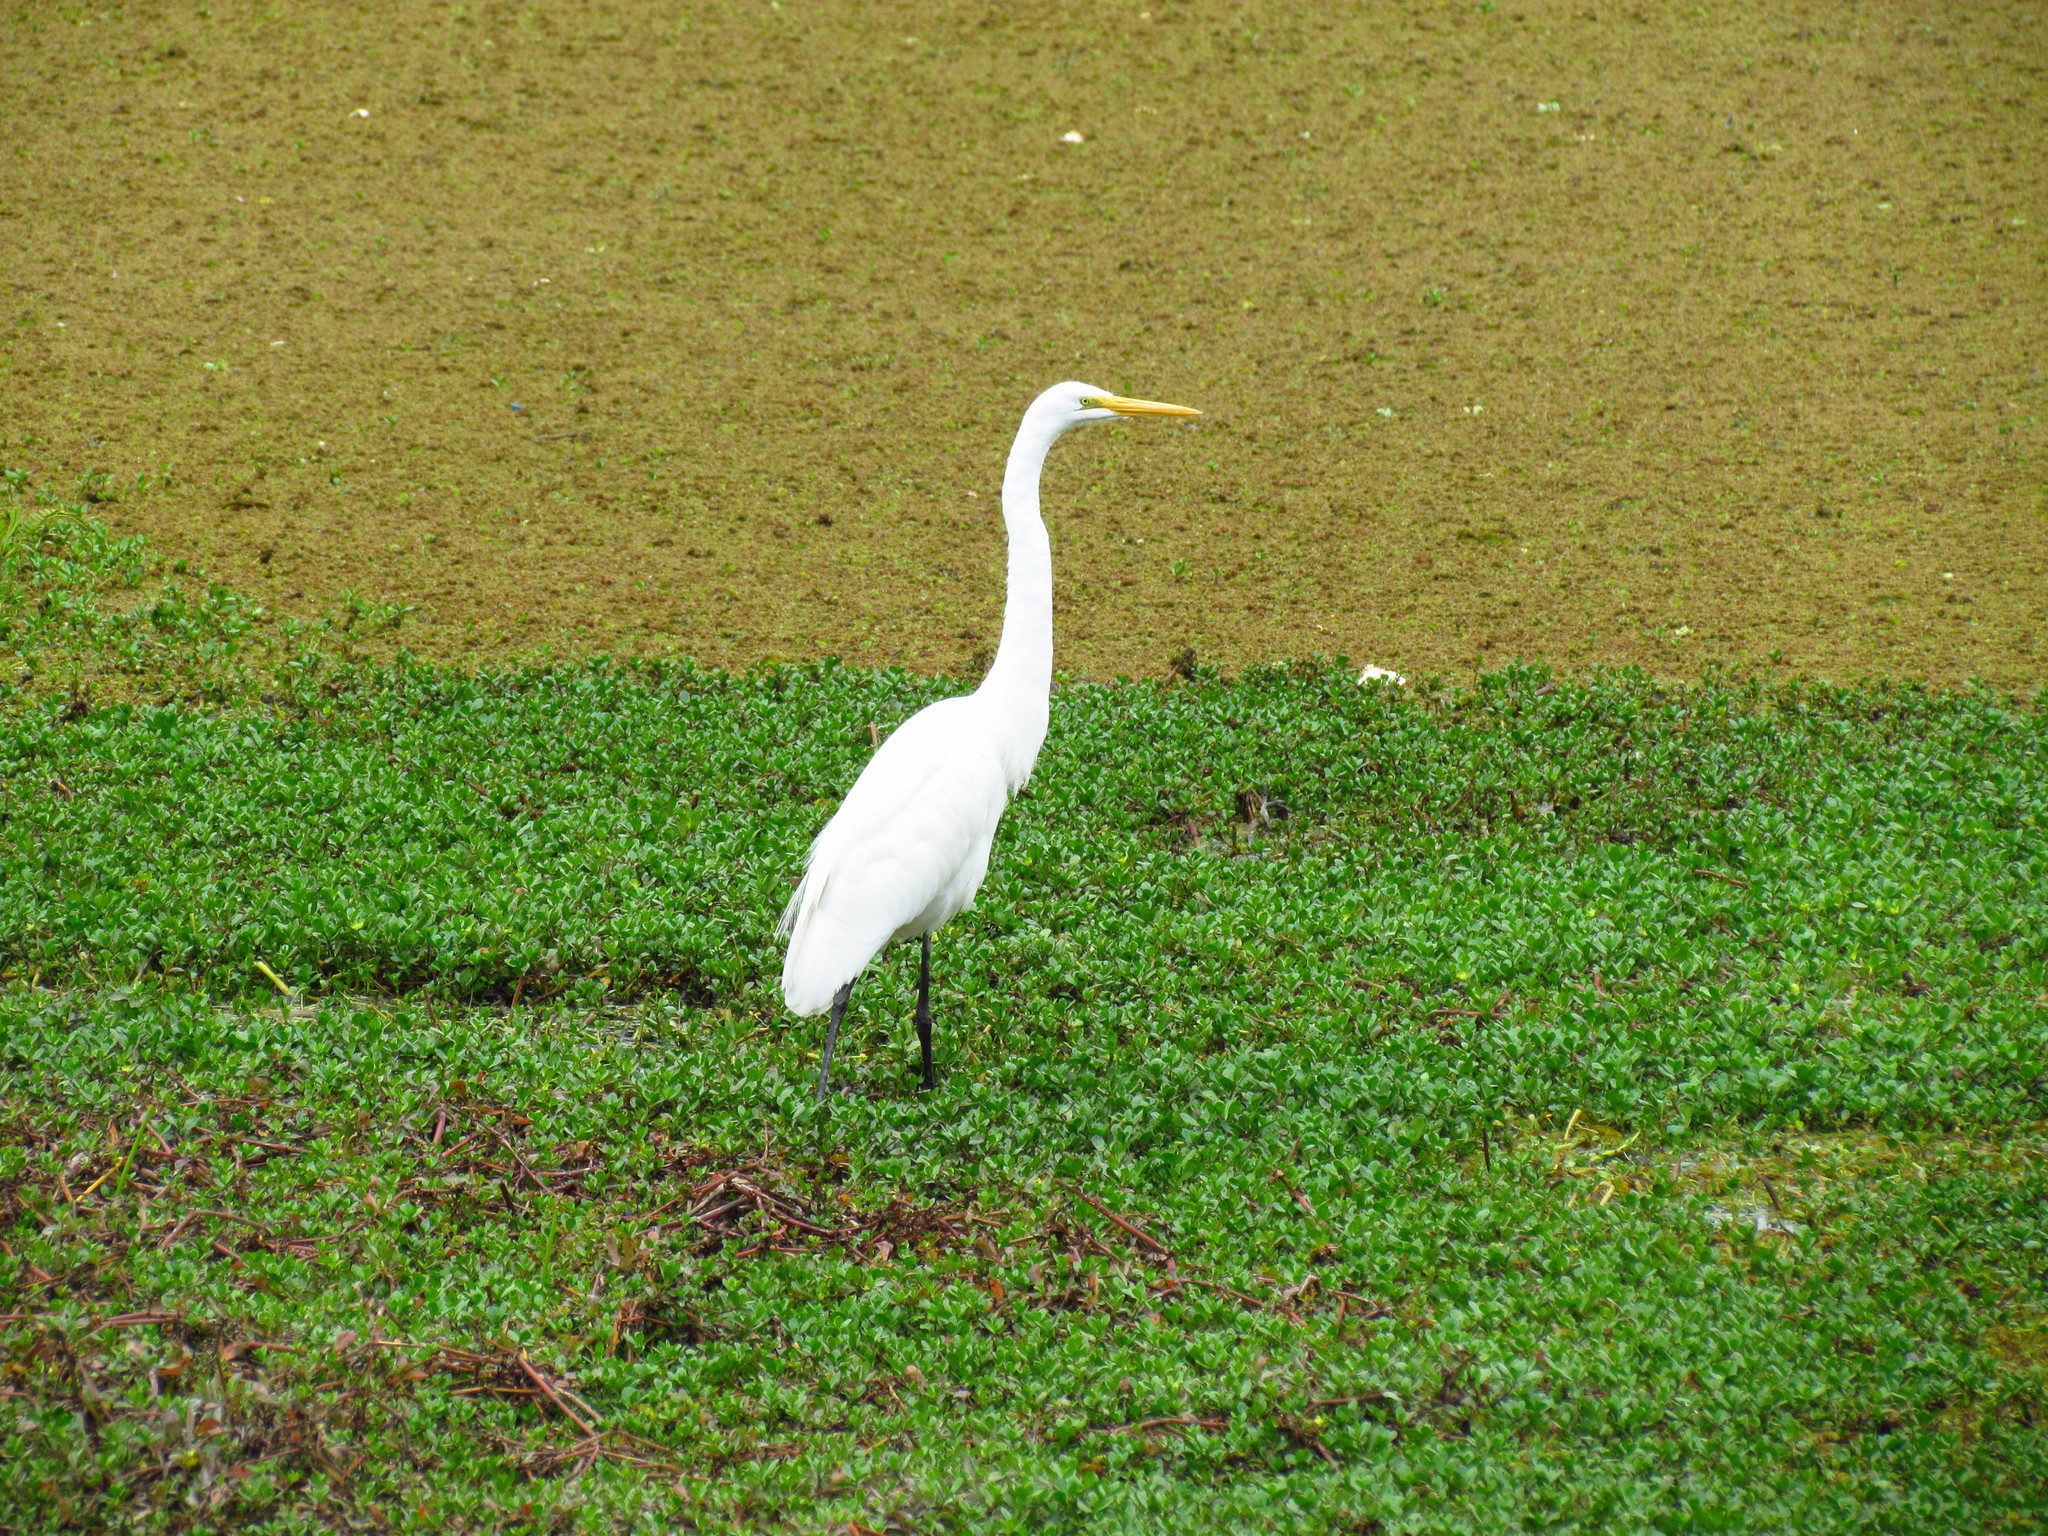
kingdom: Animalia
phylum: Chordata
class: Aves
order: Pelecaniformes
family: Ardeidae
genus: Ardea
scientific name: Ardea alba
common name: Great egret
